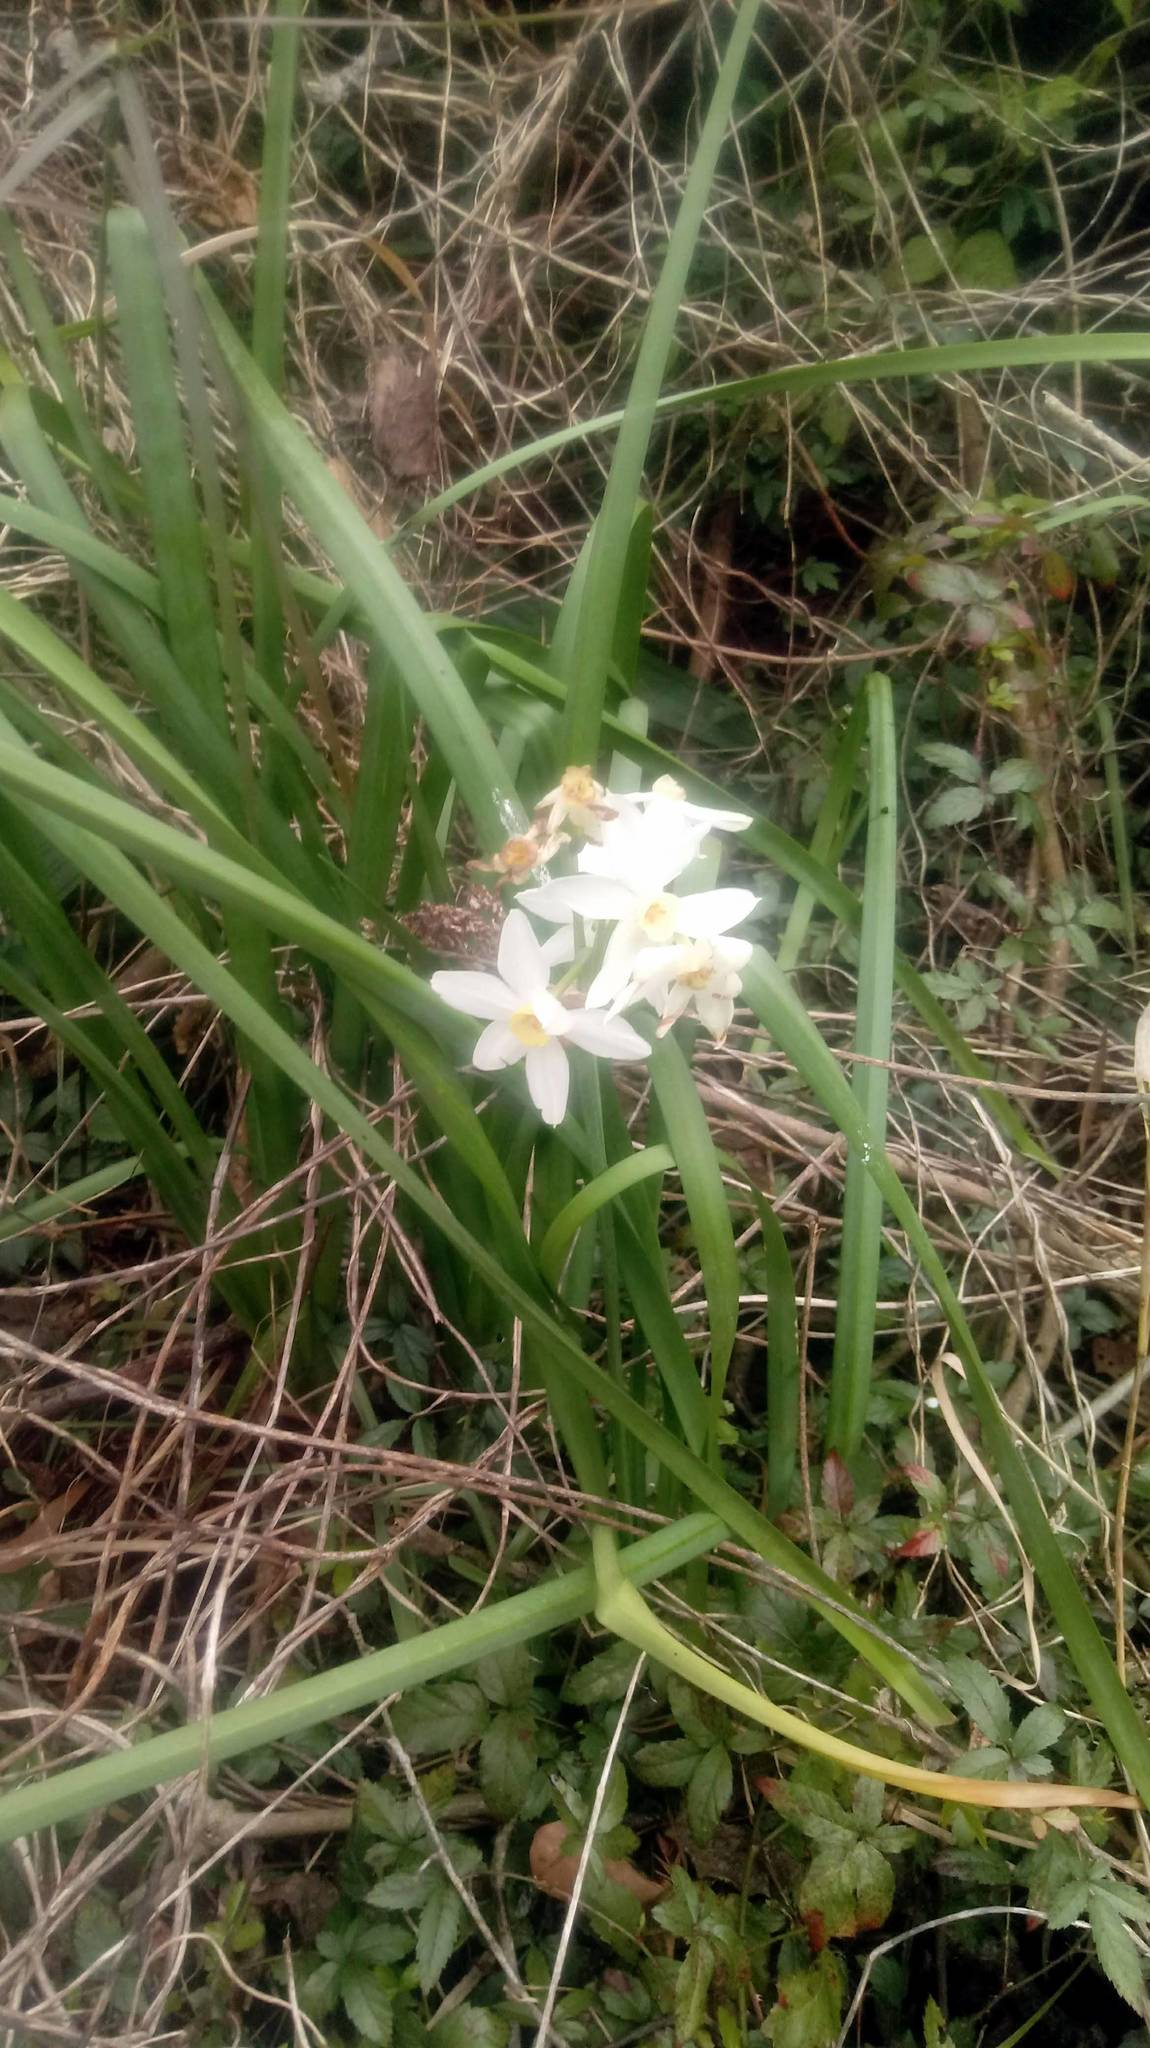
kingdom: Plantae
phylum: Tracheophyta
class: Liliopsida
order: Asparagales
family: Amaryllidaceae
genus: Narcissus
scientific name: Narcissus tazetta
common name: Bunch-flowered daffodil
